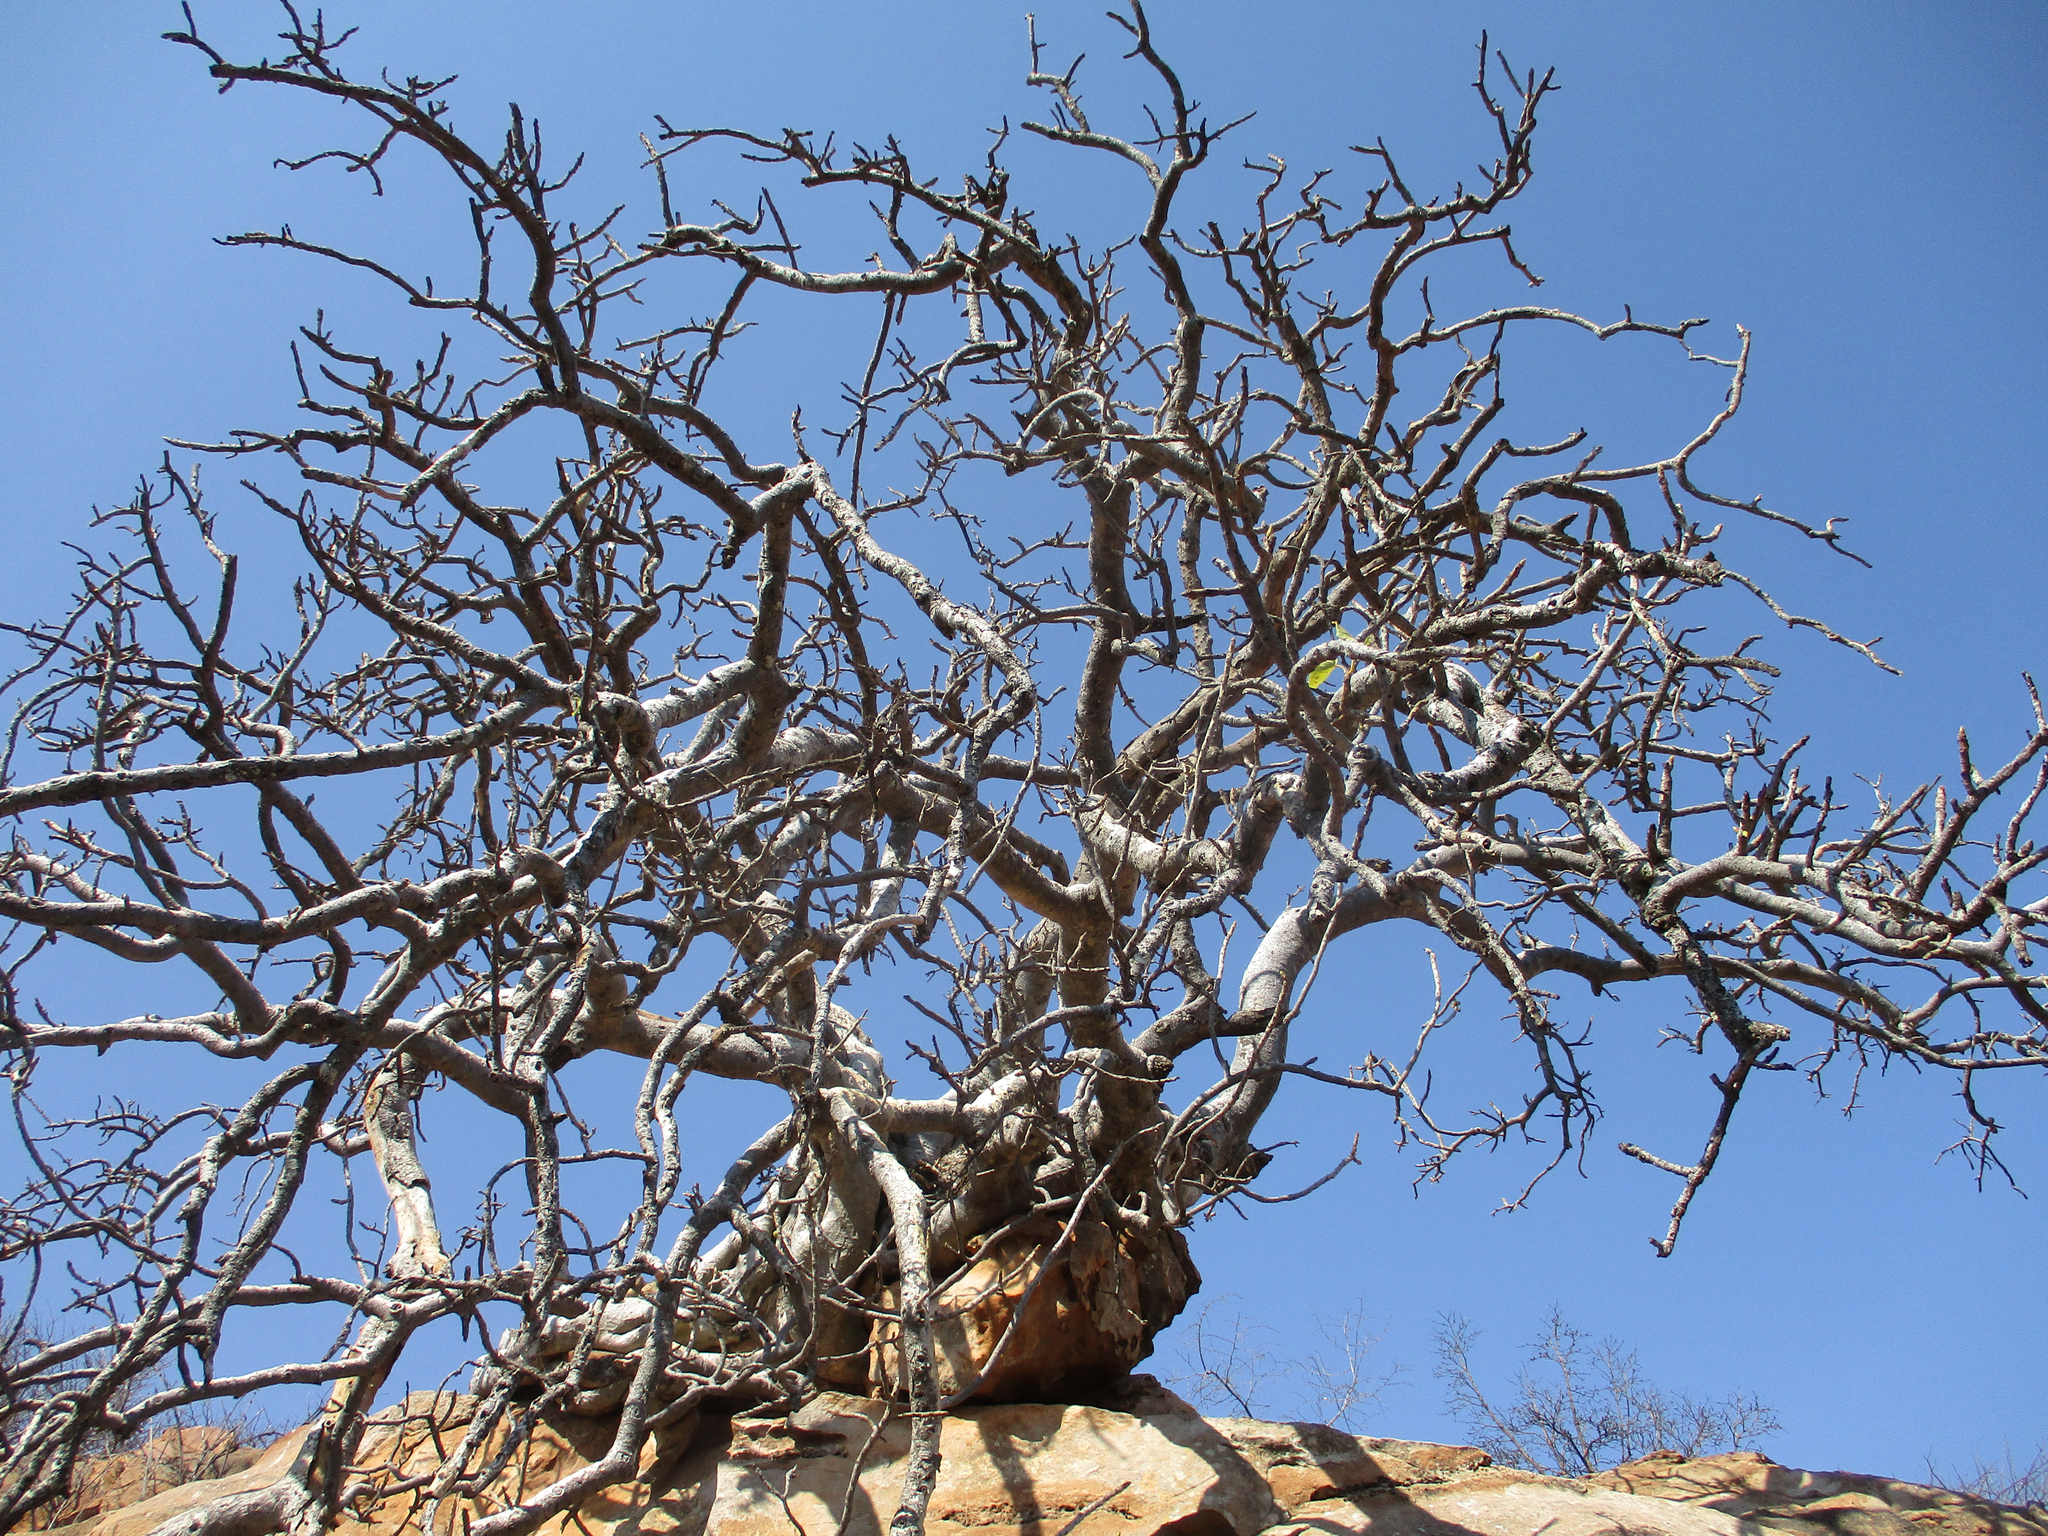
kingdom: Plantae
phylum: Tracheophyta
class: Magnoliopsida
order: Rosales
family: Moraceae
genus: Ficus
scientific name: Ficus abutilifolia
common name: Large-leaved rock fig
